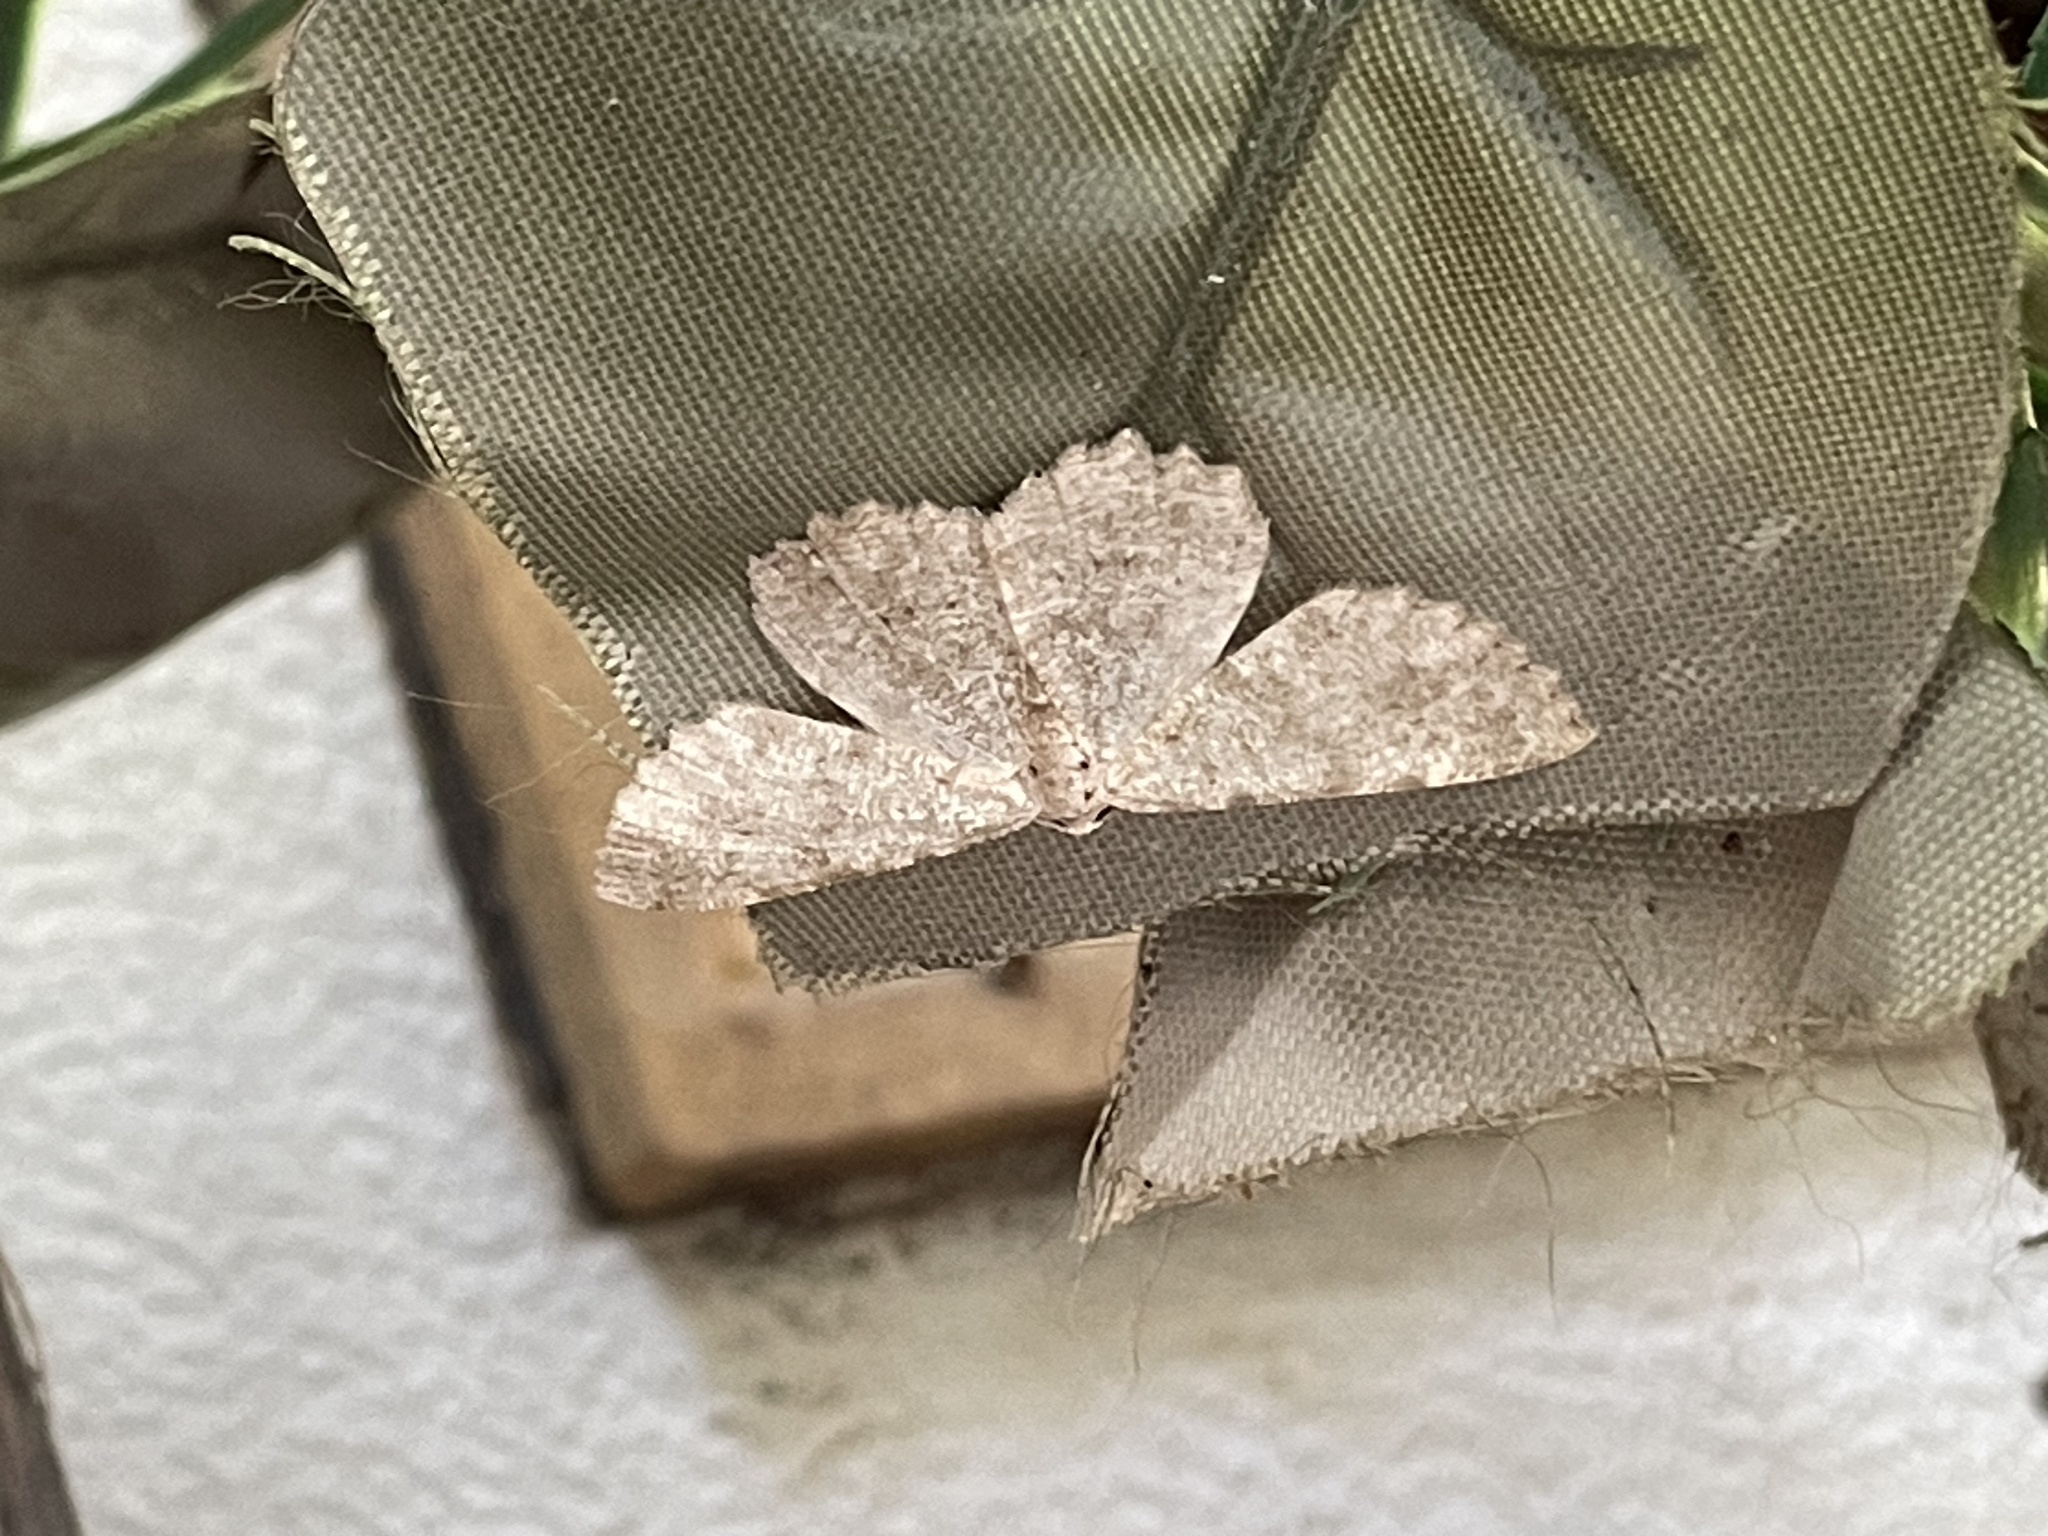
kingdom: Animalia
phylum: Arthropoda
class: Insecta
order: Lepidoptera
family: Geometridae
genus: Gnophos
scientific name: Gnophos sartata
